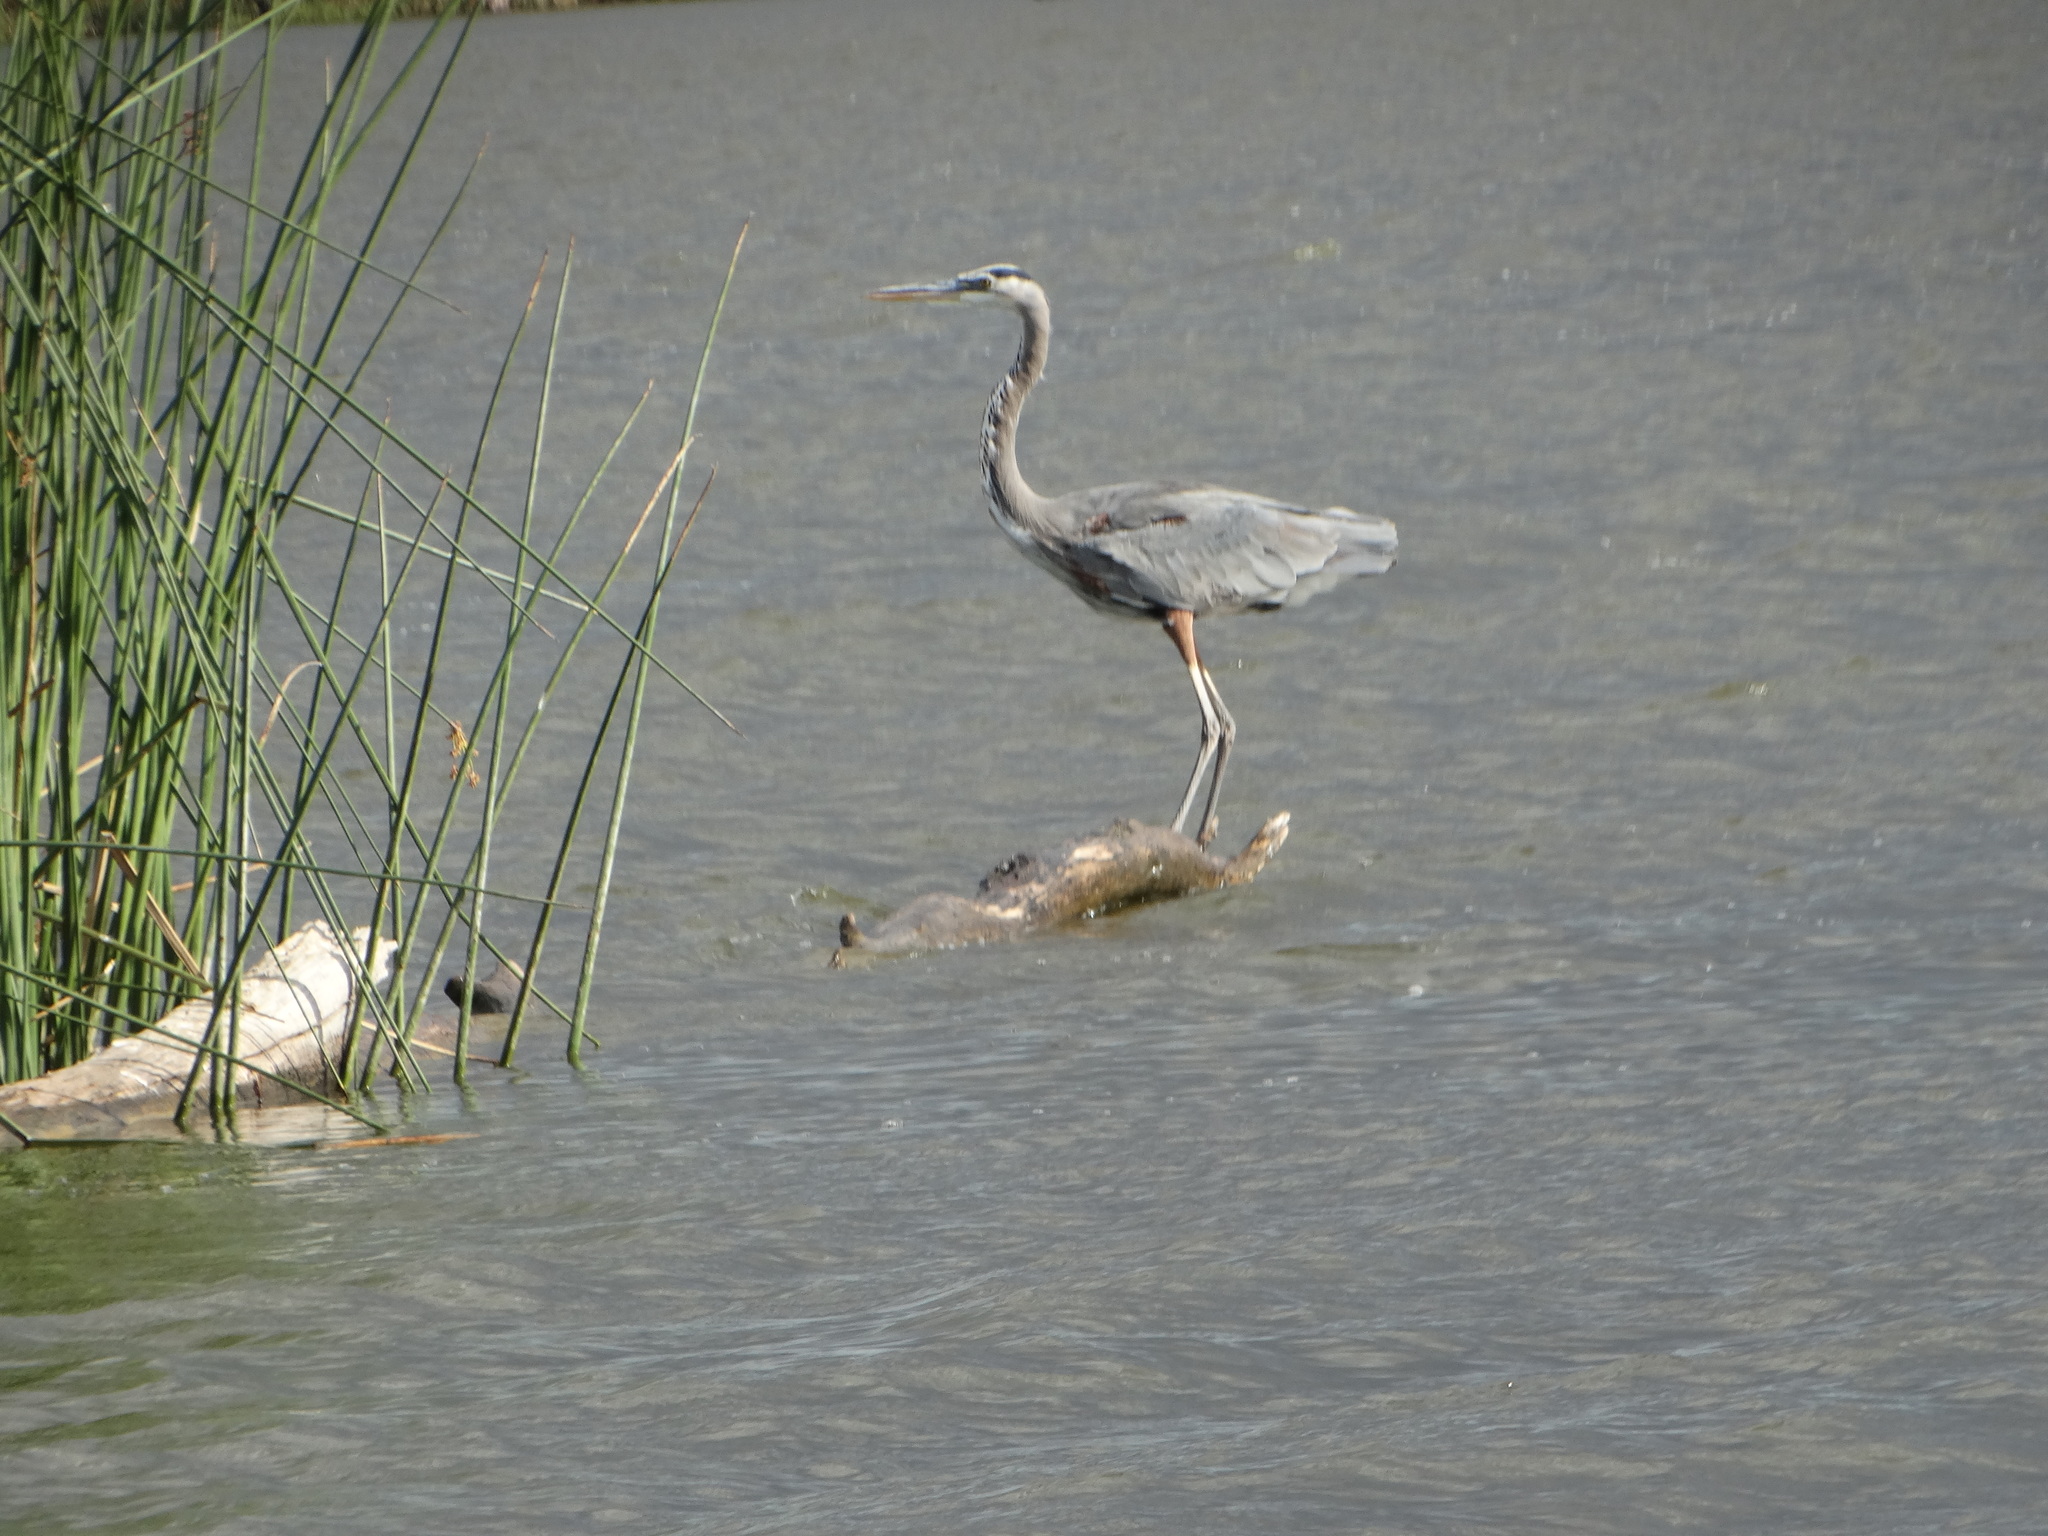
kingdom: Animalia
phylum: Chordata
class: Aves
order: Pelecaniformes
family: Ardeidae
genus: Ardea
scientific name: Ardea herodias
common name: Great blue heron
